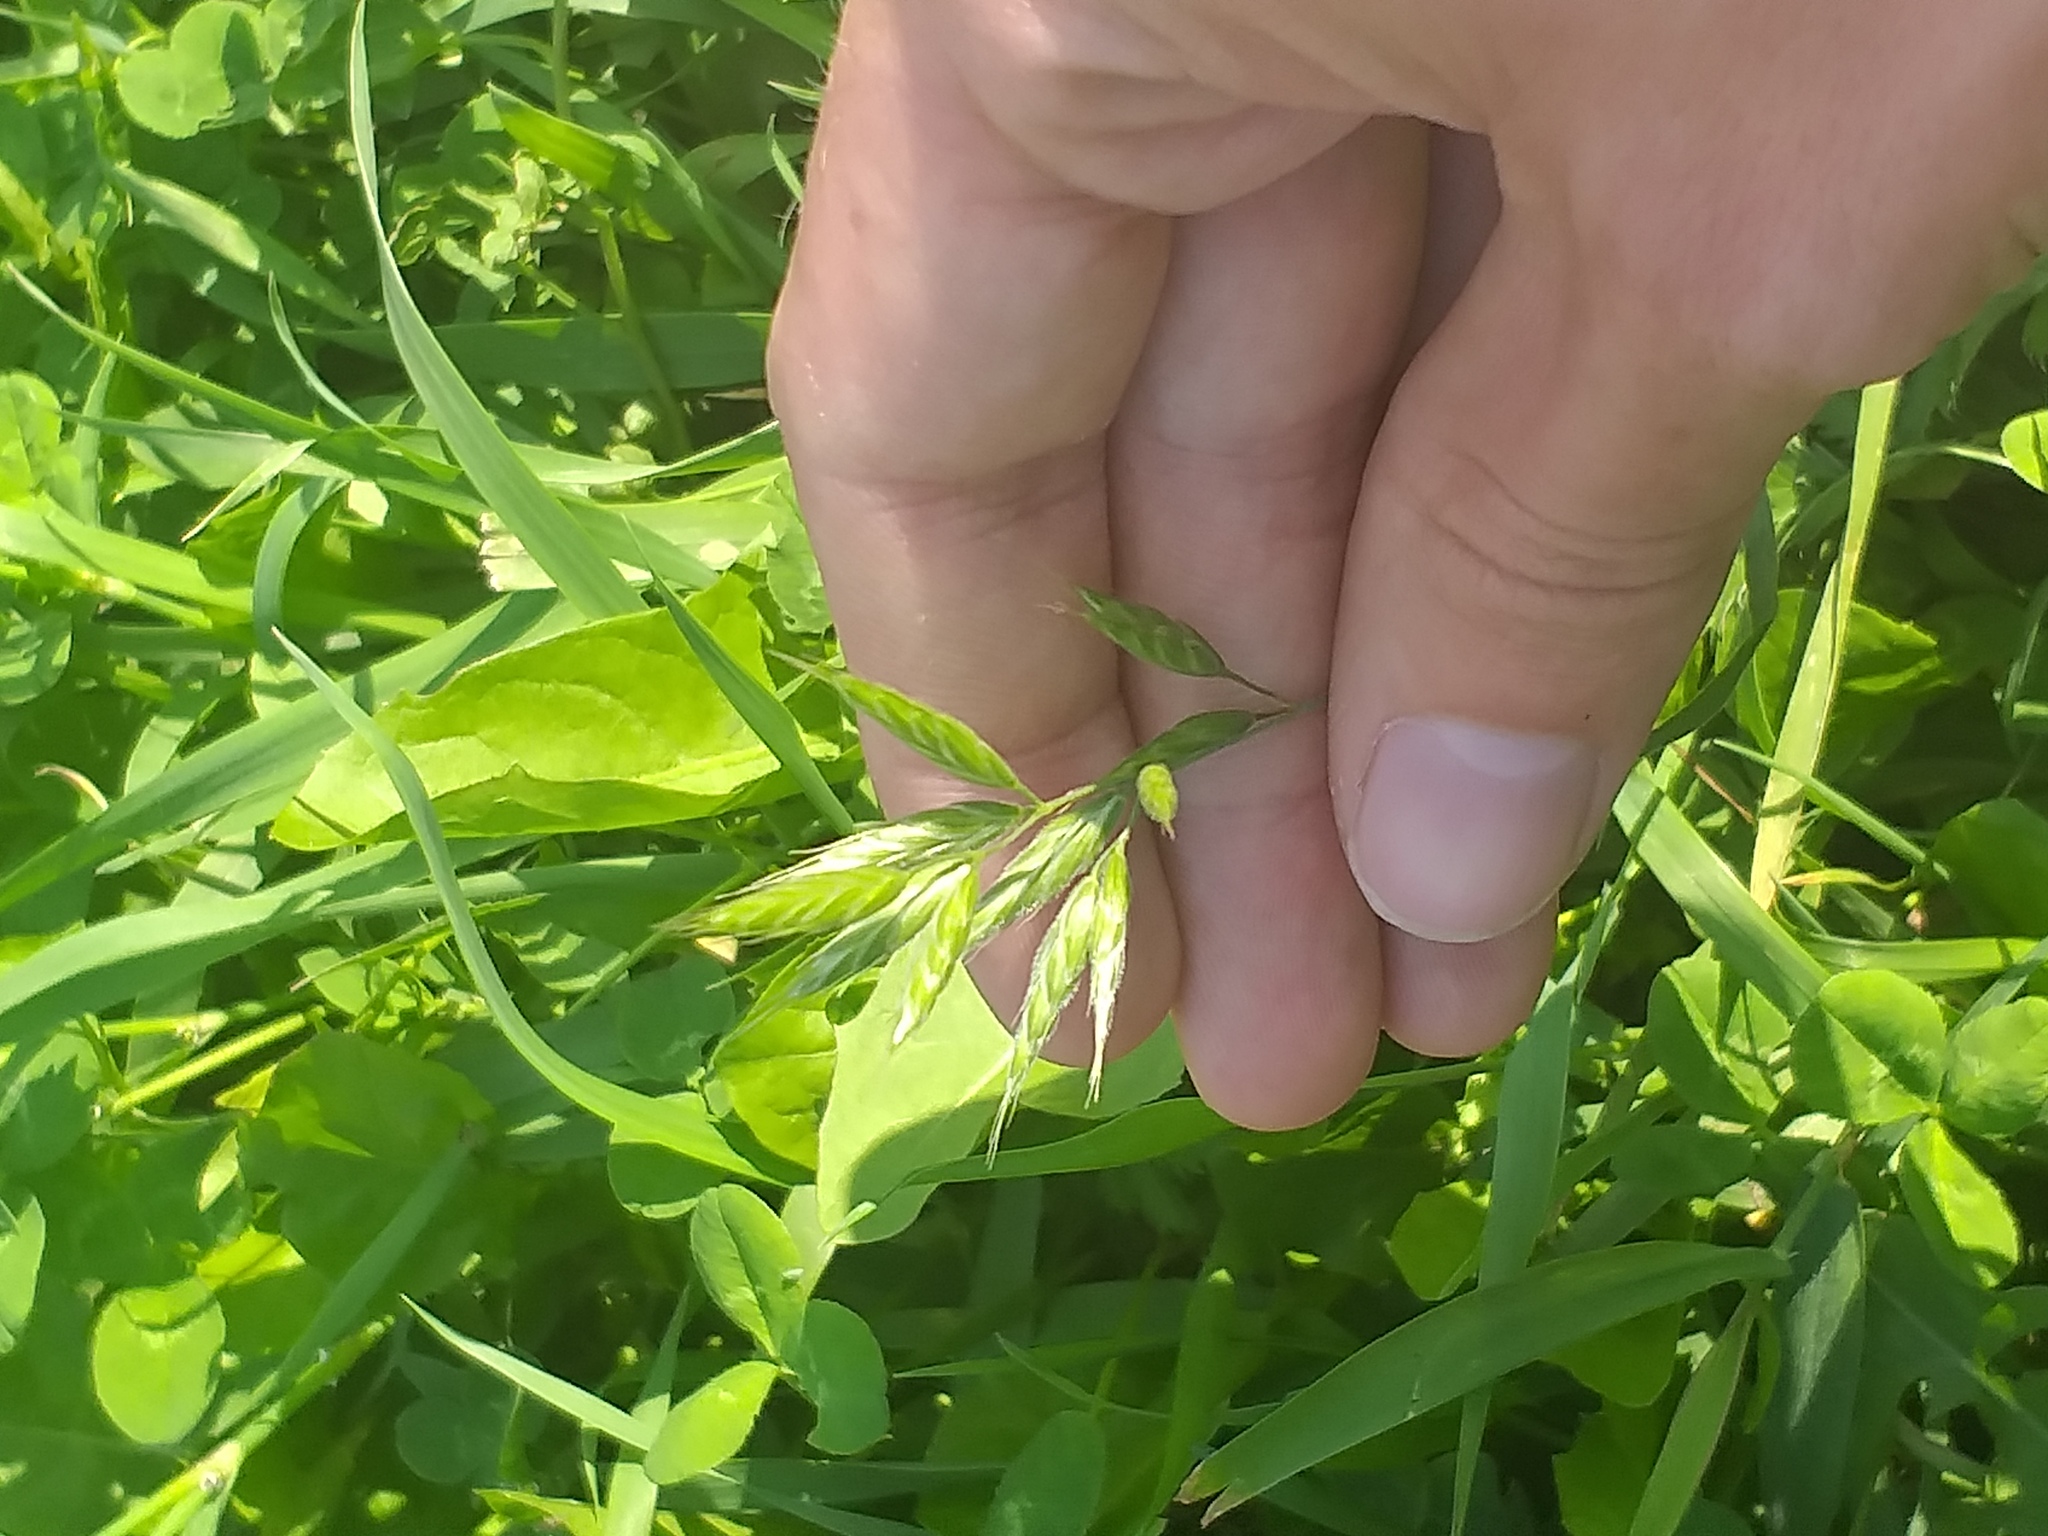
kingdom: Plantae
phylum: Tracheophyta
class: Liliopsida
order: Poales
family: Poaceae
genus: Bromus
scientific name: Bromus hordeaceus
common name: Soft brome
